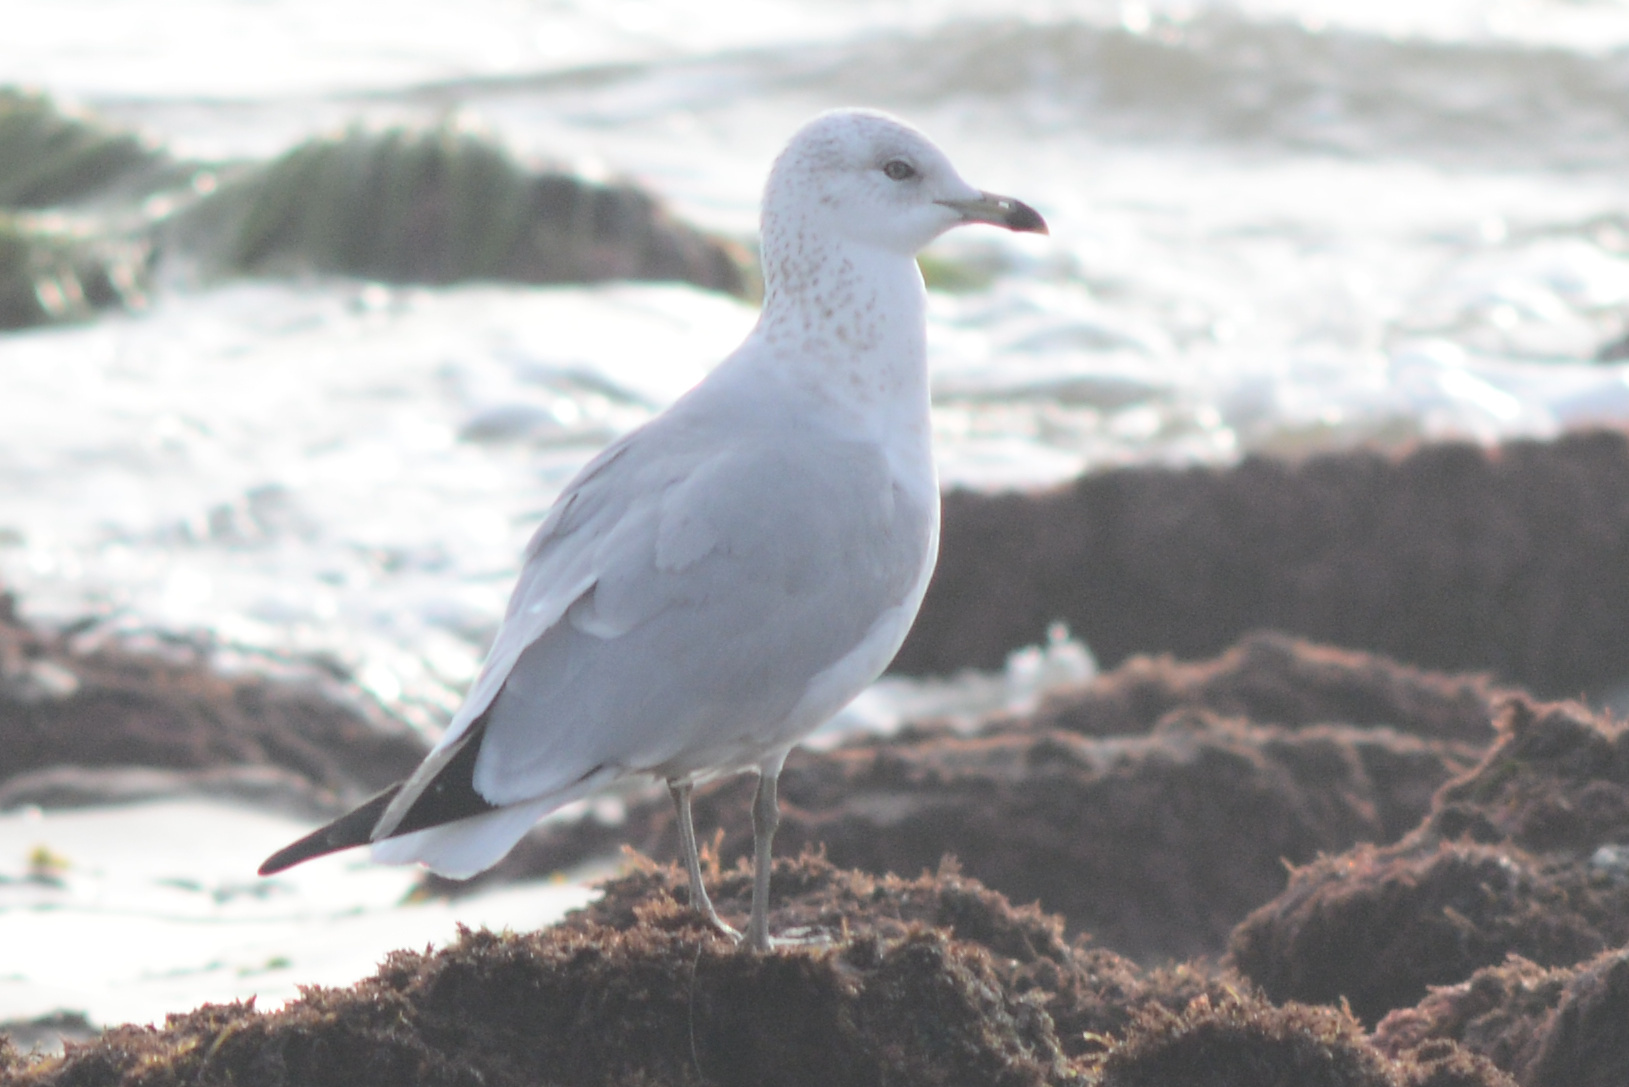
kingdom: Animalia
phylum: Chordata
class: Aves
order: Charadriiformes
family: Laridae
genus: Larus
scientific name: Larus delawarensis
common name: Ring-billed gull
